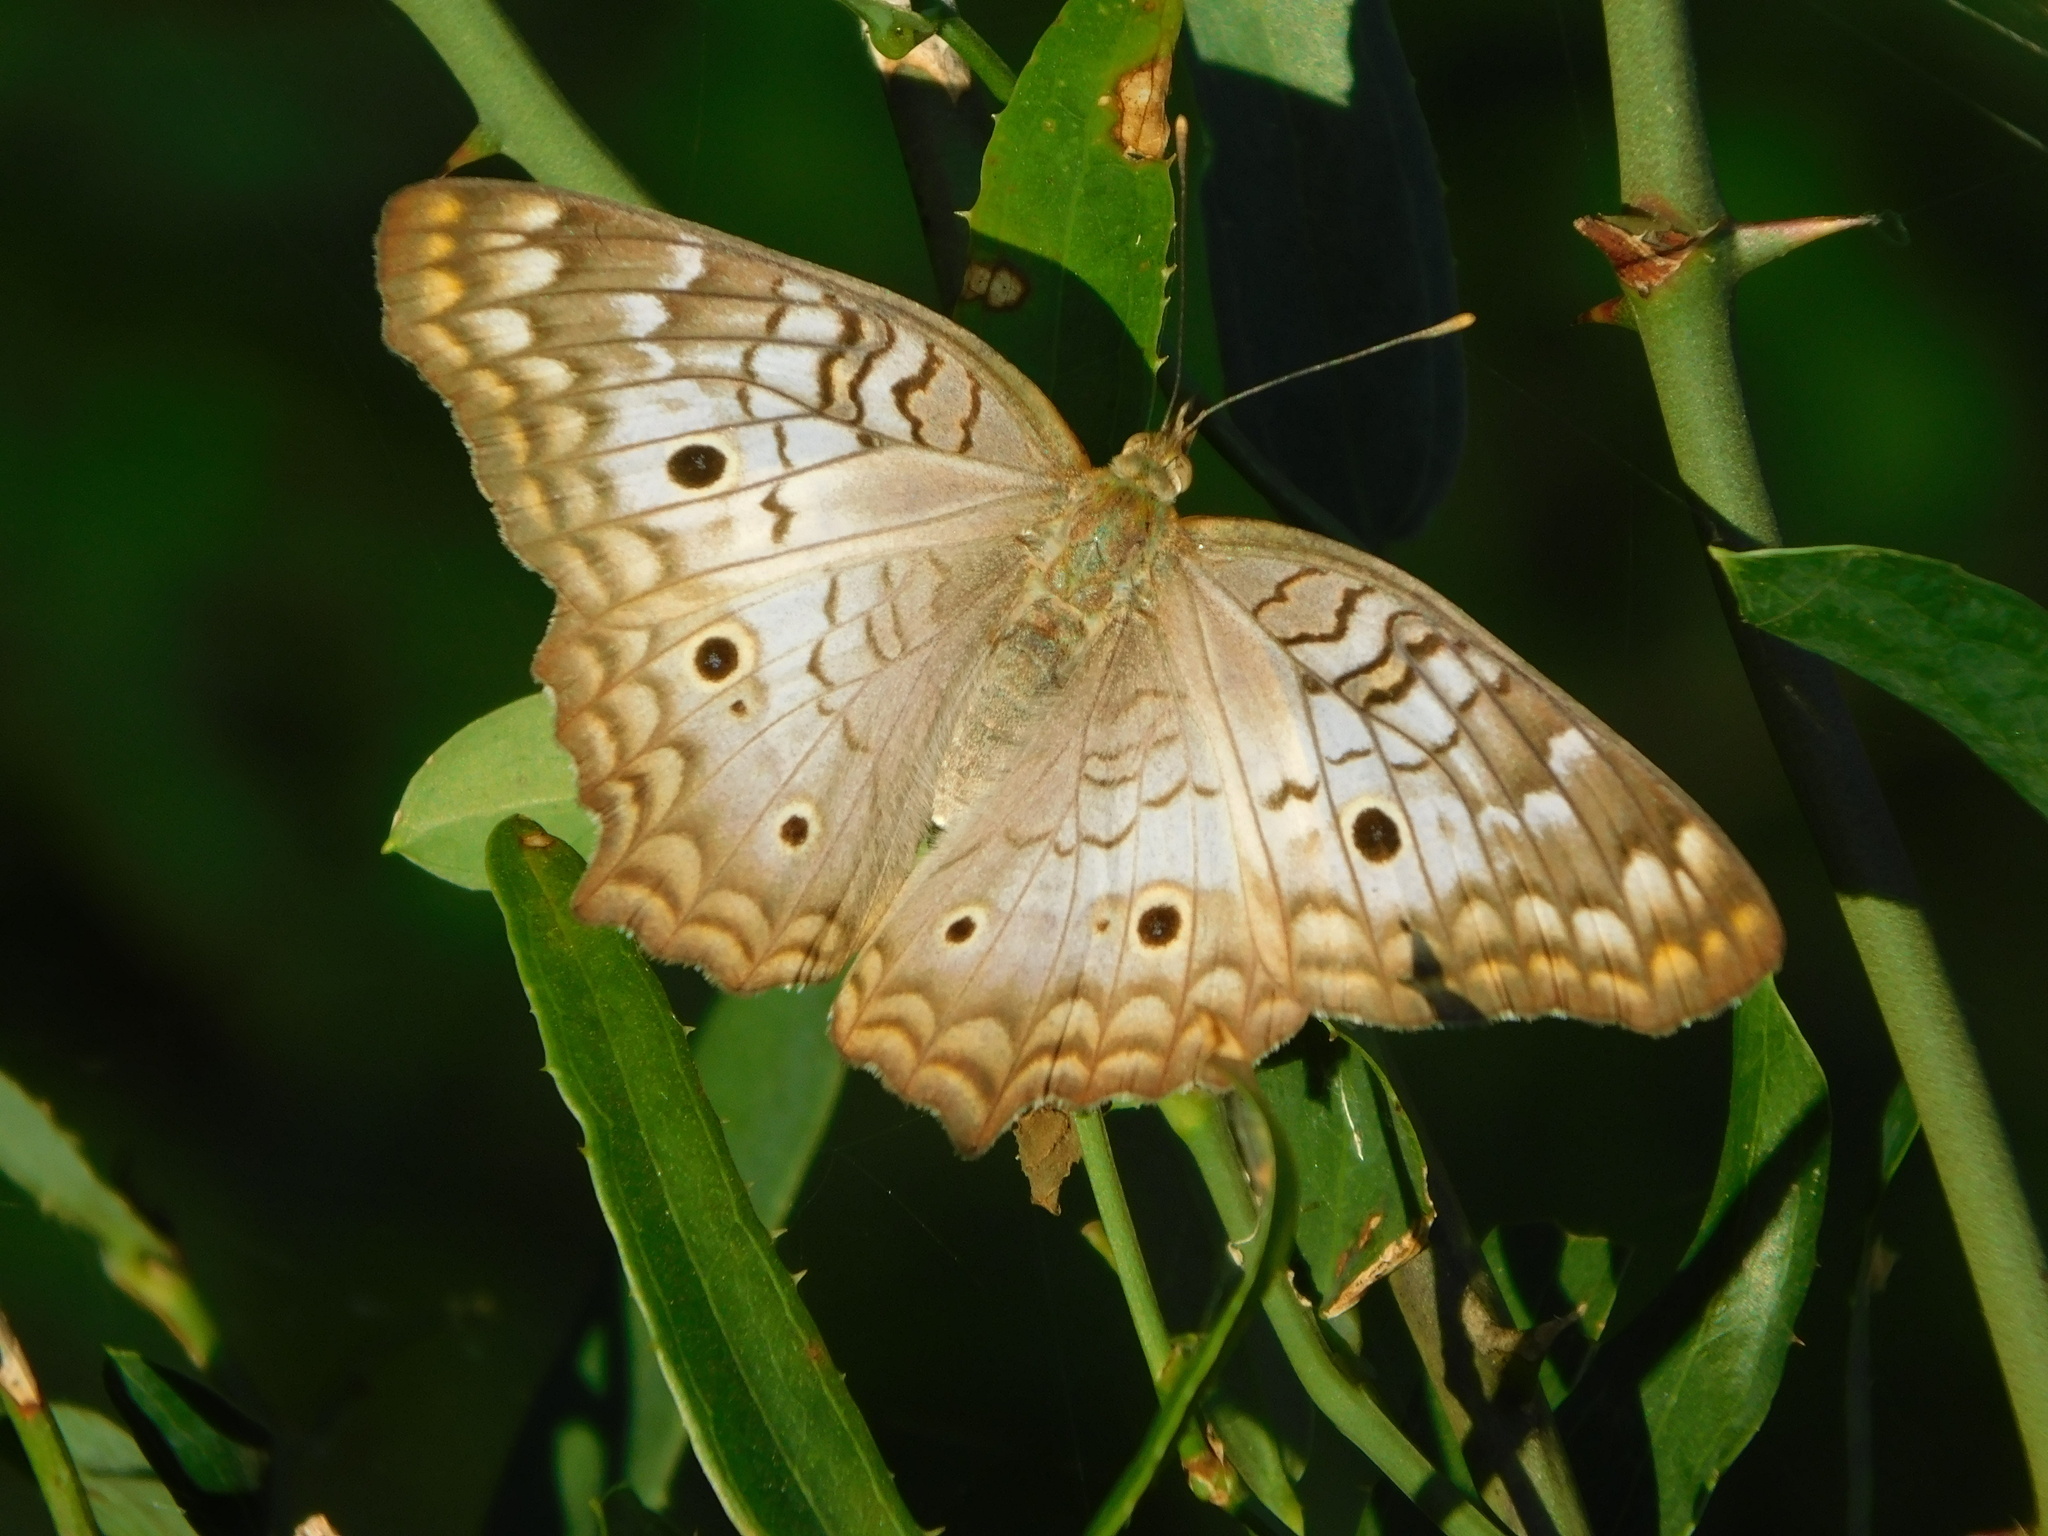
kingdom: Animalia
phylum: Arthropoda
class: Insecta
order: Lepidoptera
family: Nymphalidae
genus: Anartia
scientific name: Anartia jatrophae
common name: White peacock
